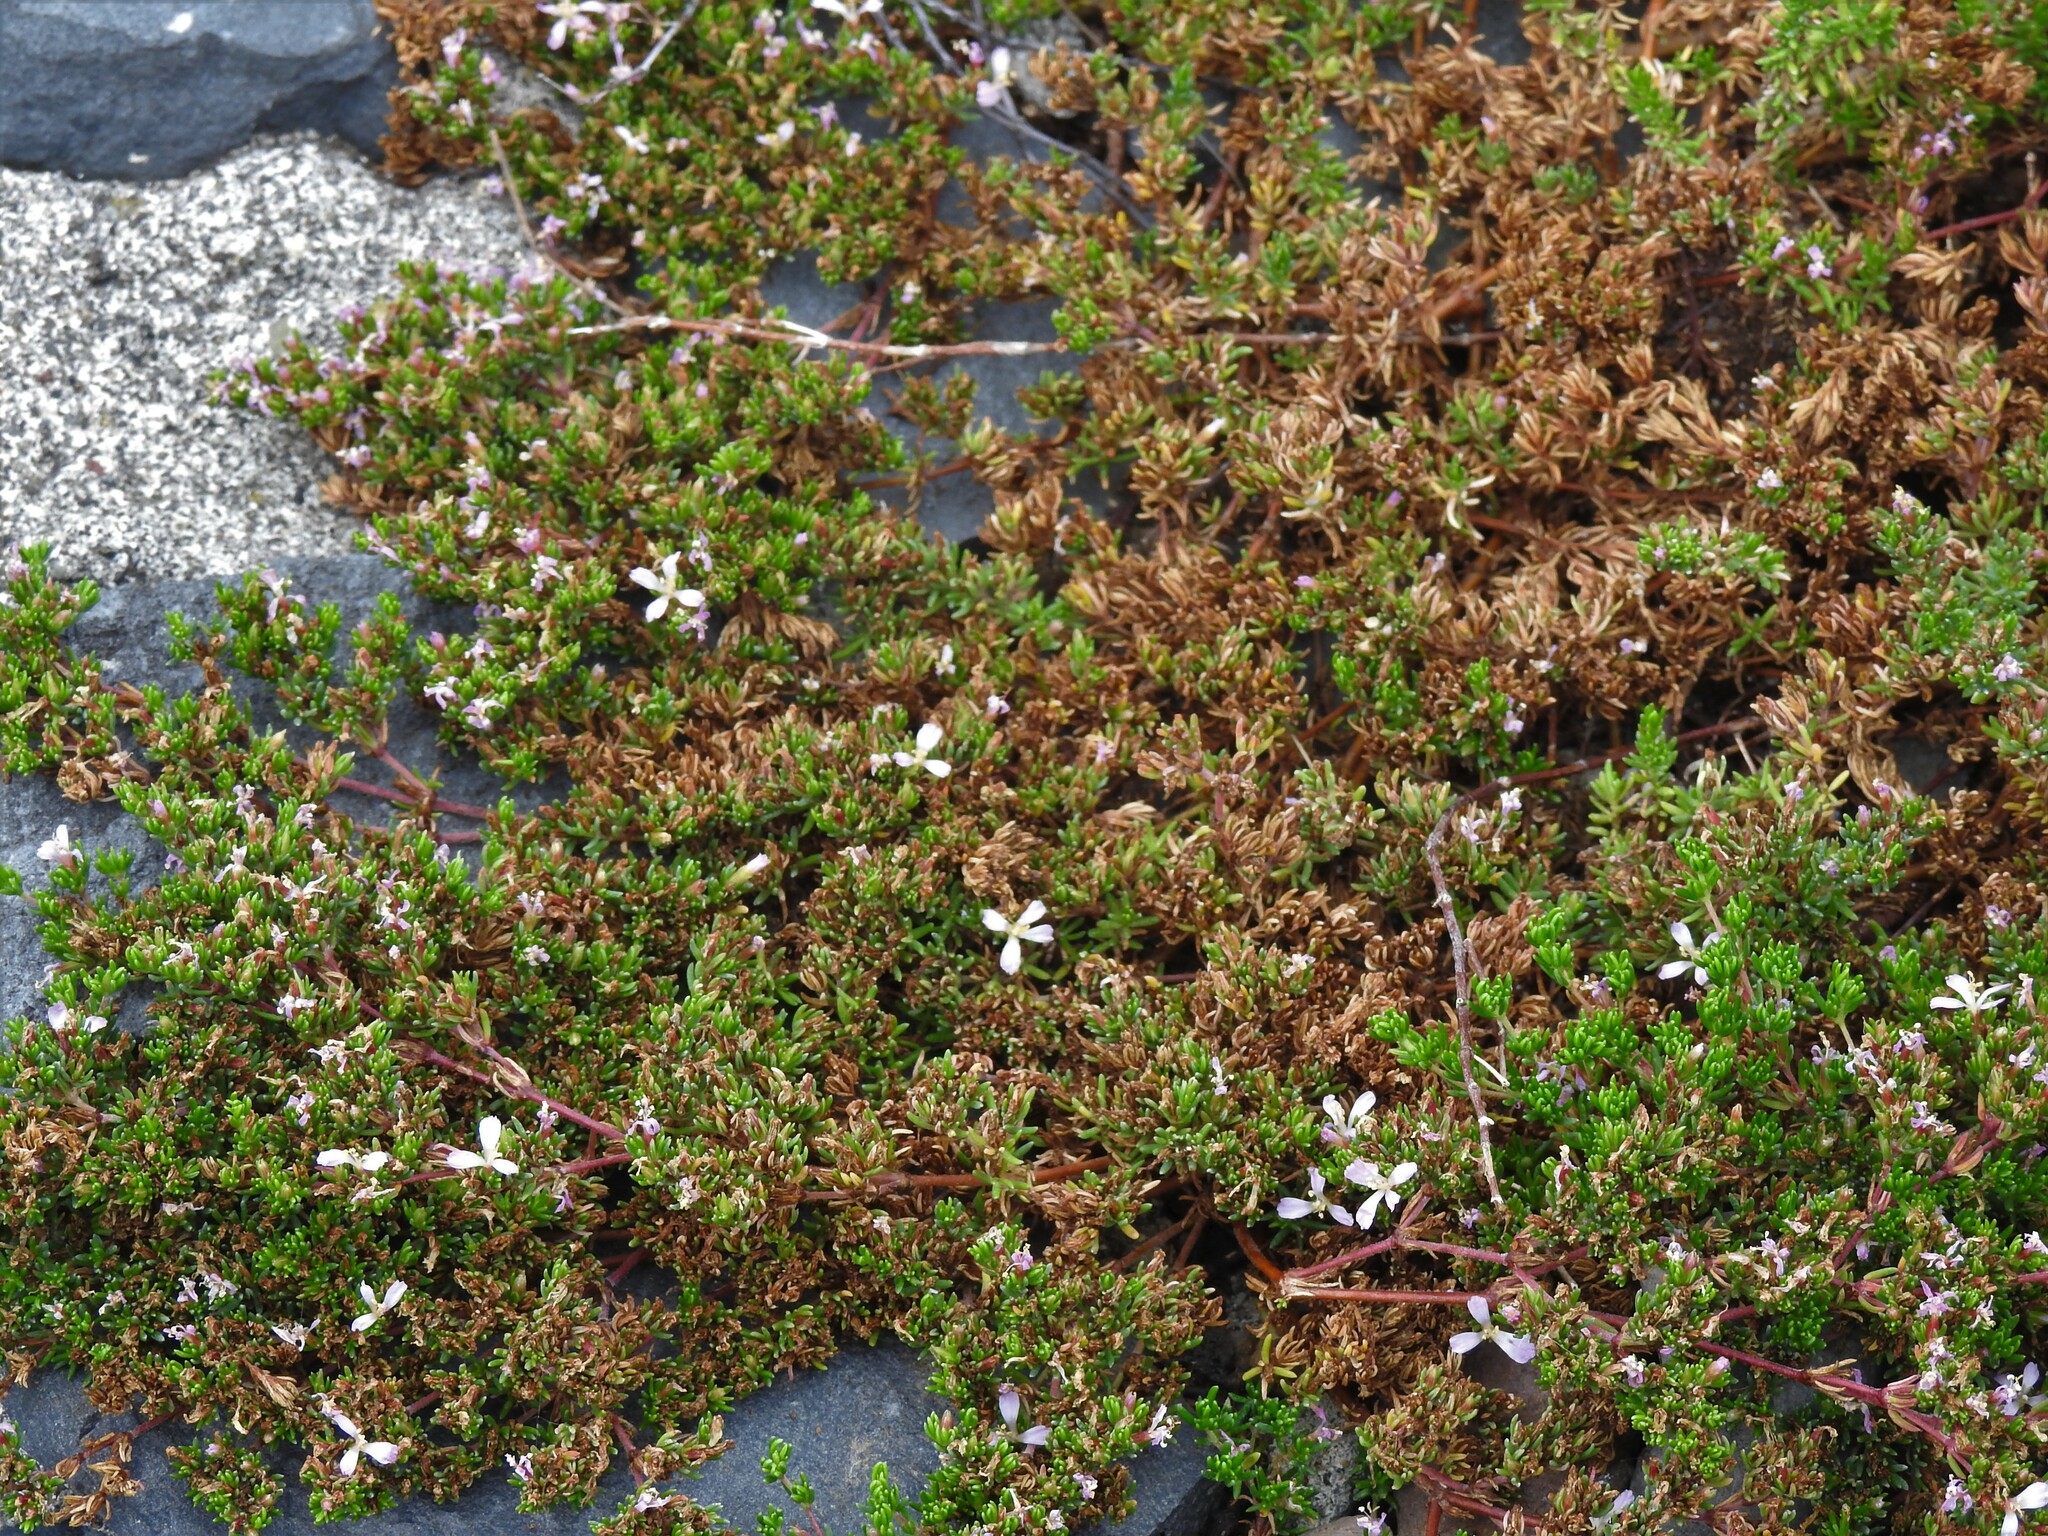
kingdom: Plantae
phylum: Tracheophyta
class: Magnoliopsida
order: Caryophyllales
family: Frankeniaceae
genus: Frankenia
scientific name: Frankenia laevis
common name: Sea-heath
